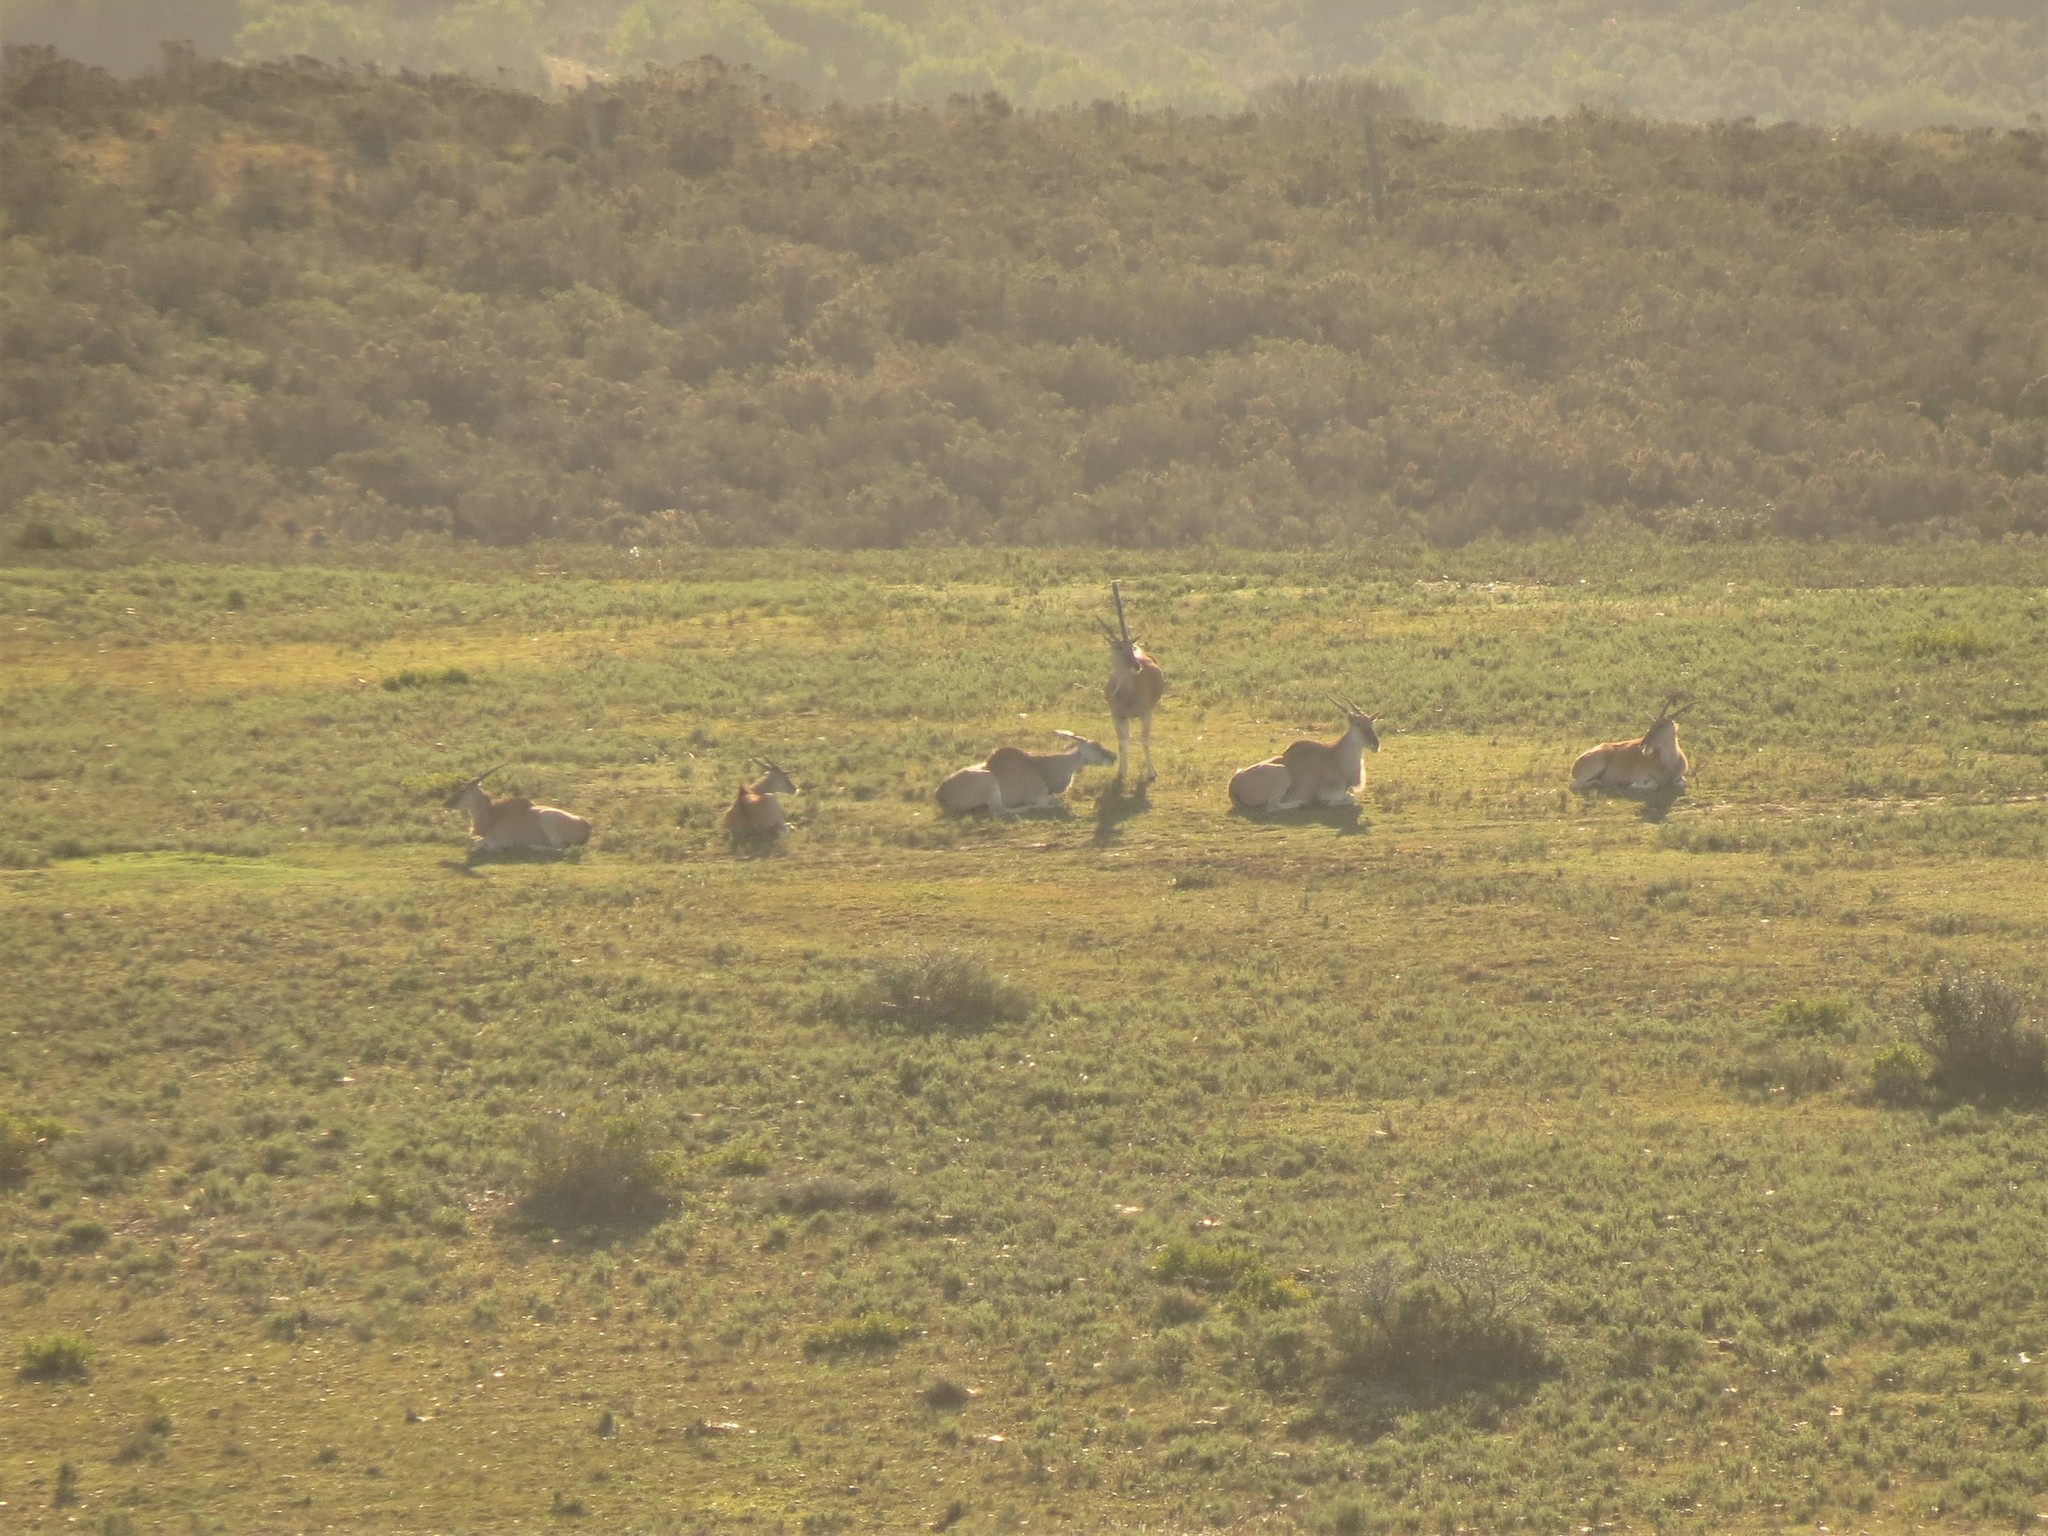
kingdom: Animalia
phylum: Chordata
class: Mammalia
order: Artiodactyla
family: Bovidae
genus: Taurotragus
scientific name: Taurotragus oryx
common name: Common eland
